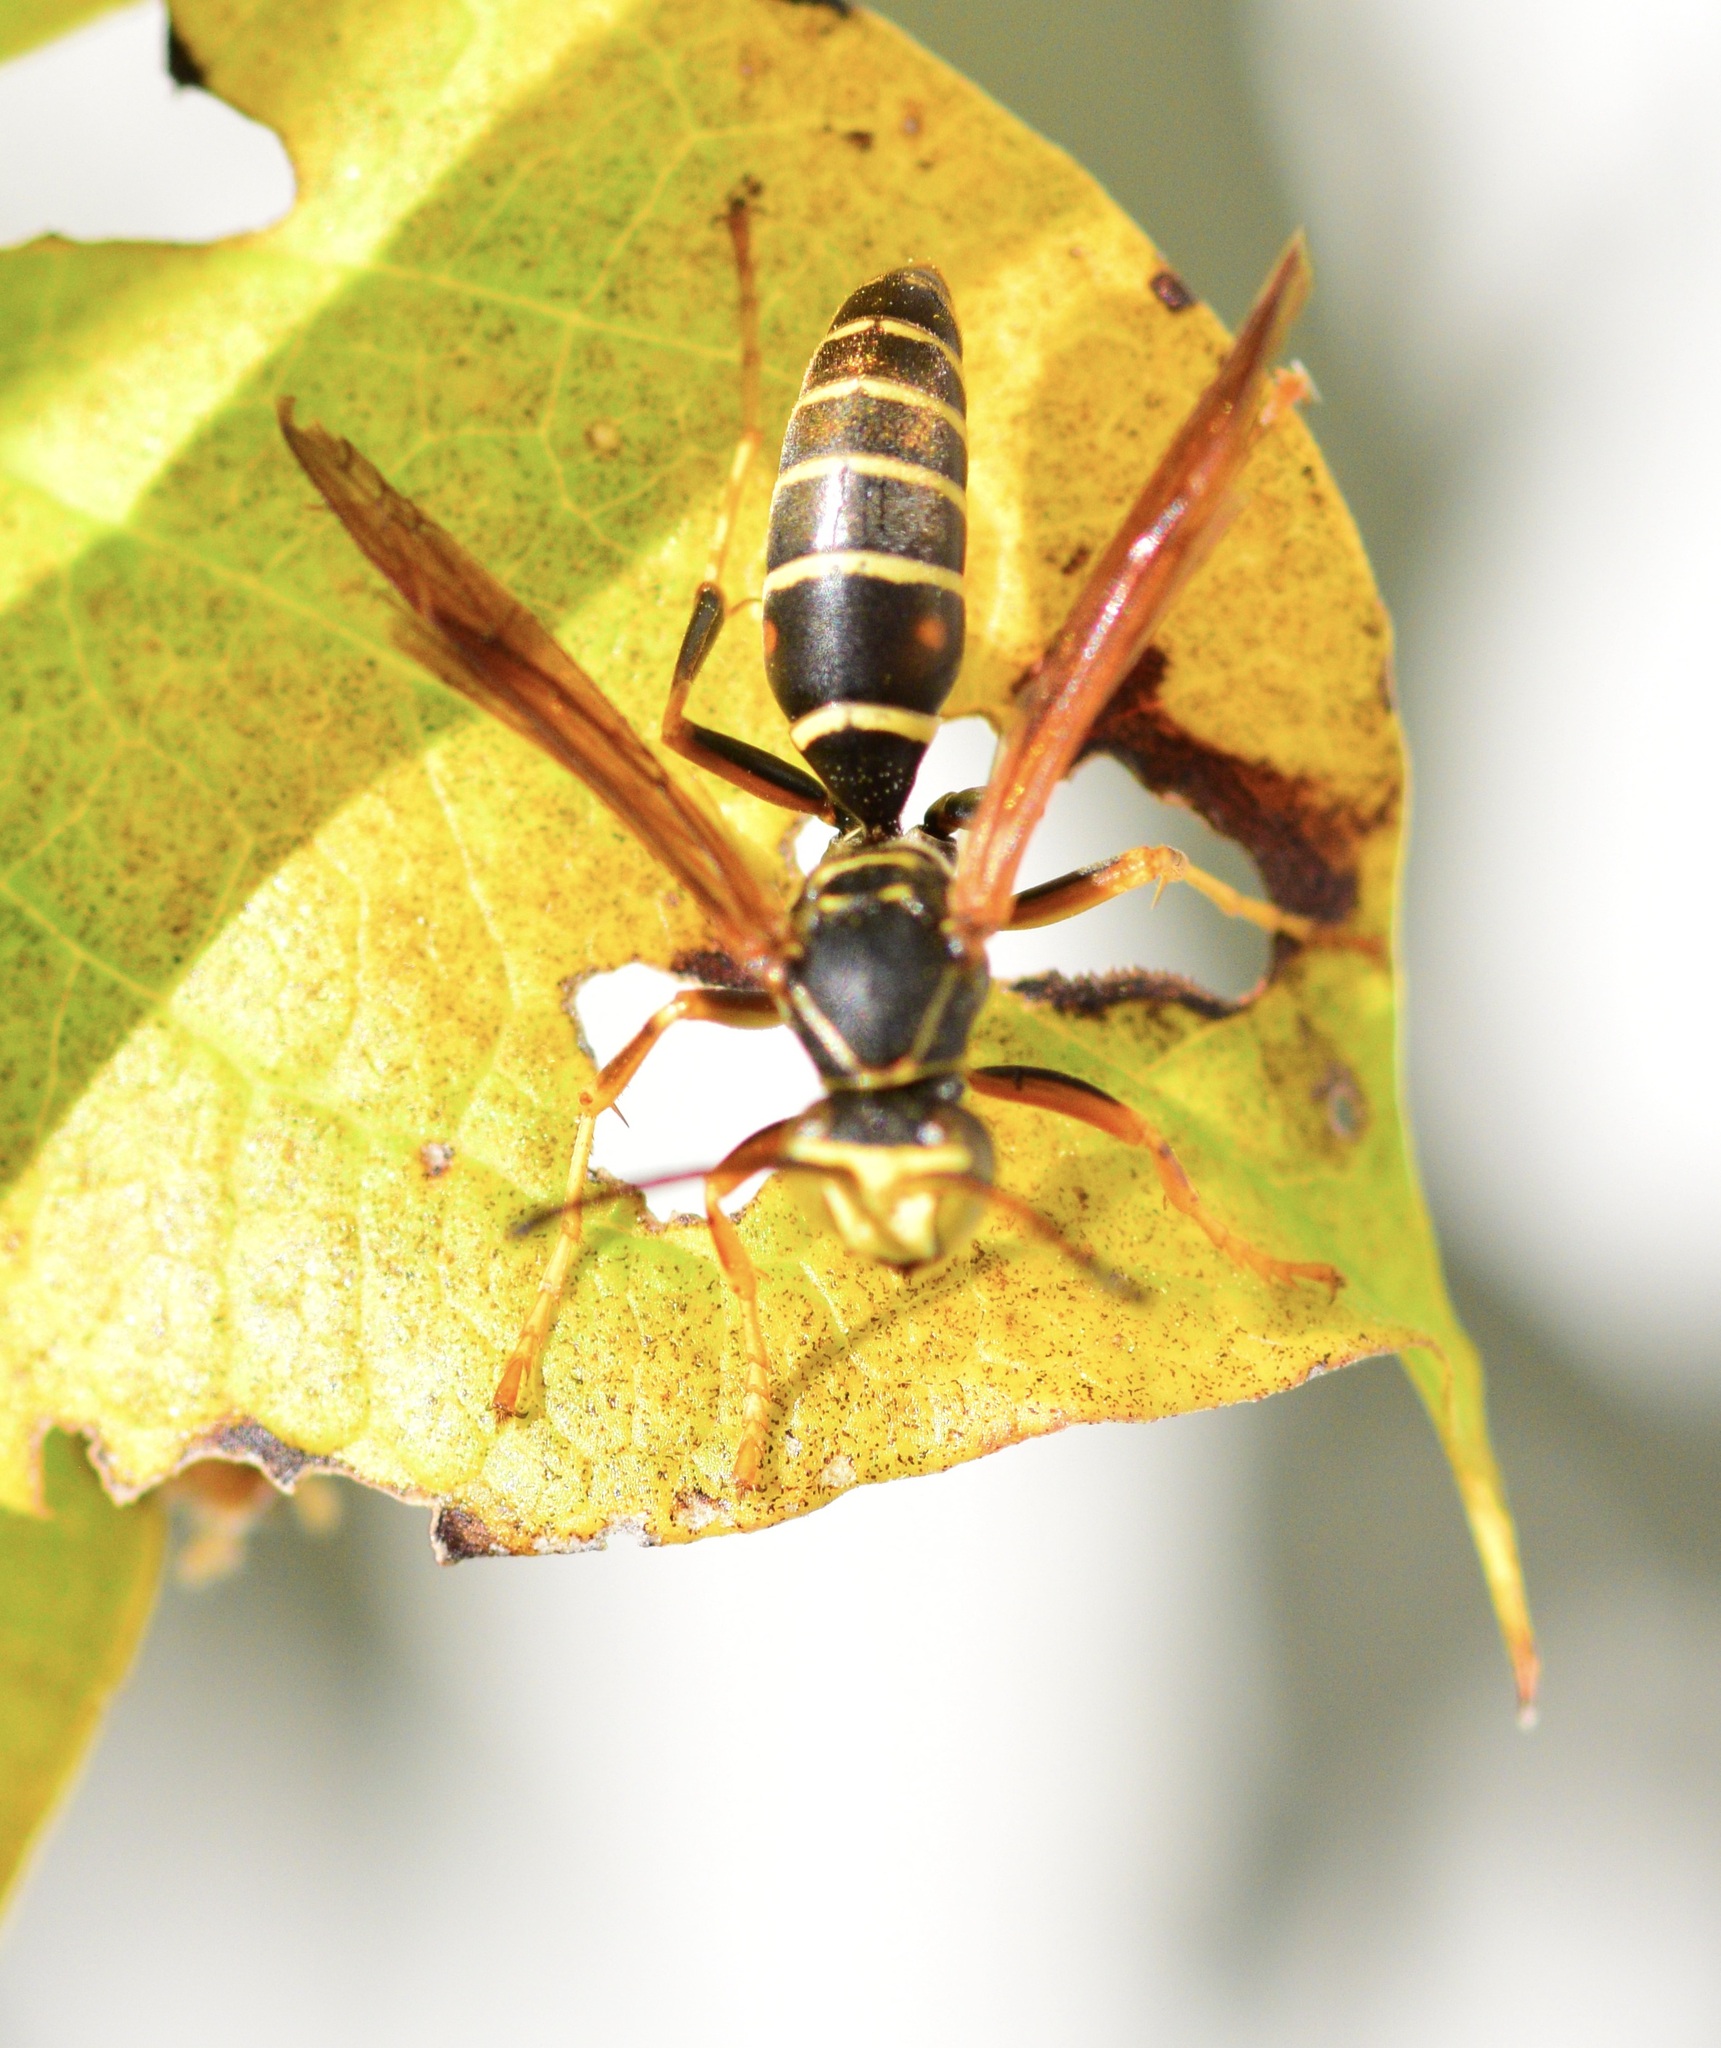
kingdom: Animalia
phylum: Arthropoda
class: Insecta
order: Hymenoptera
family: Eumenidae
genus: Polistes
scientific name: Polistes fuscatus
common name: Dark paper wasp
